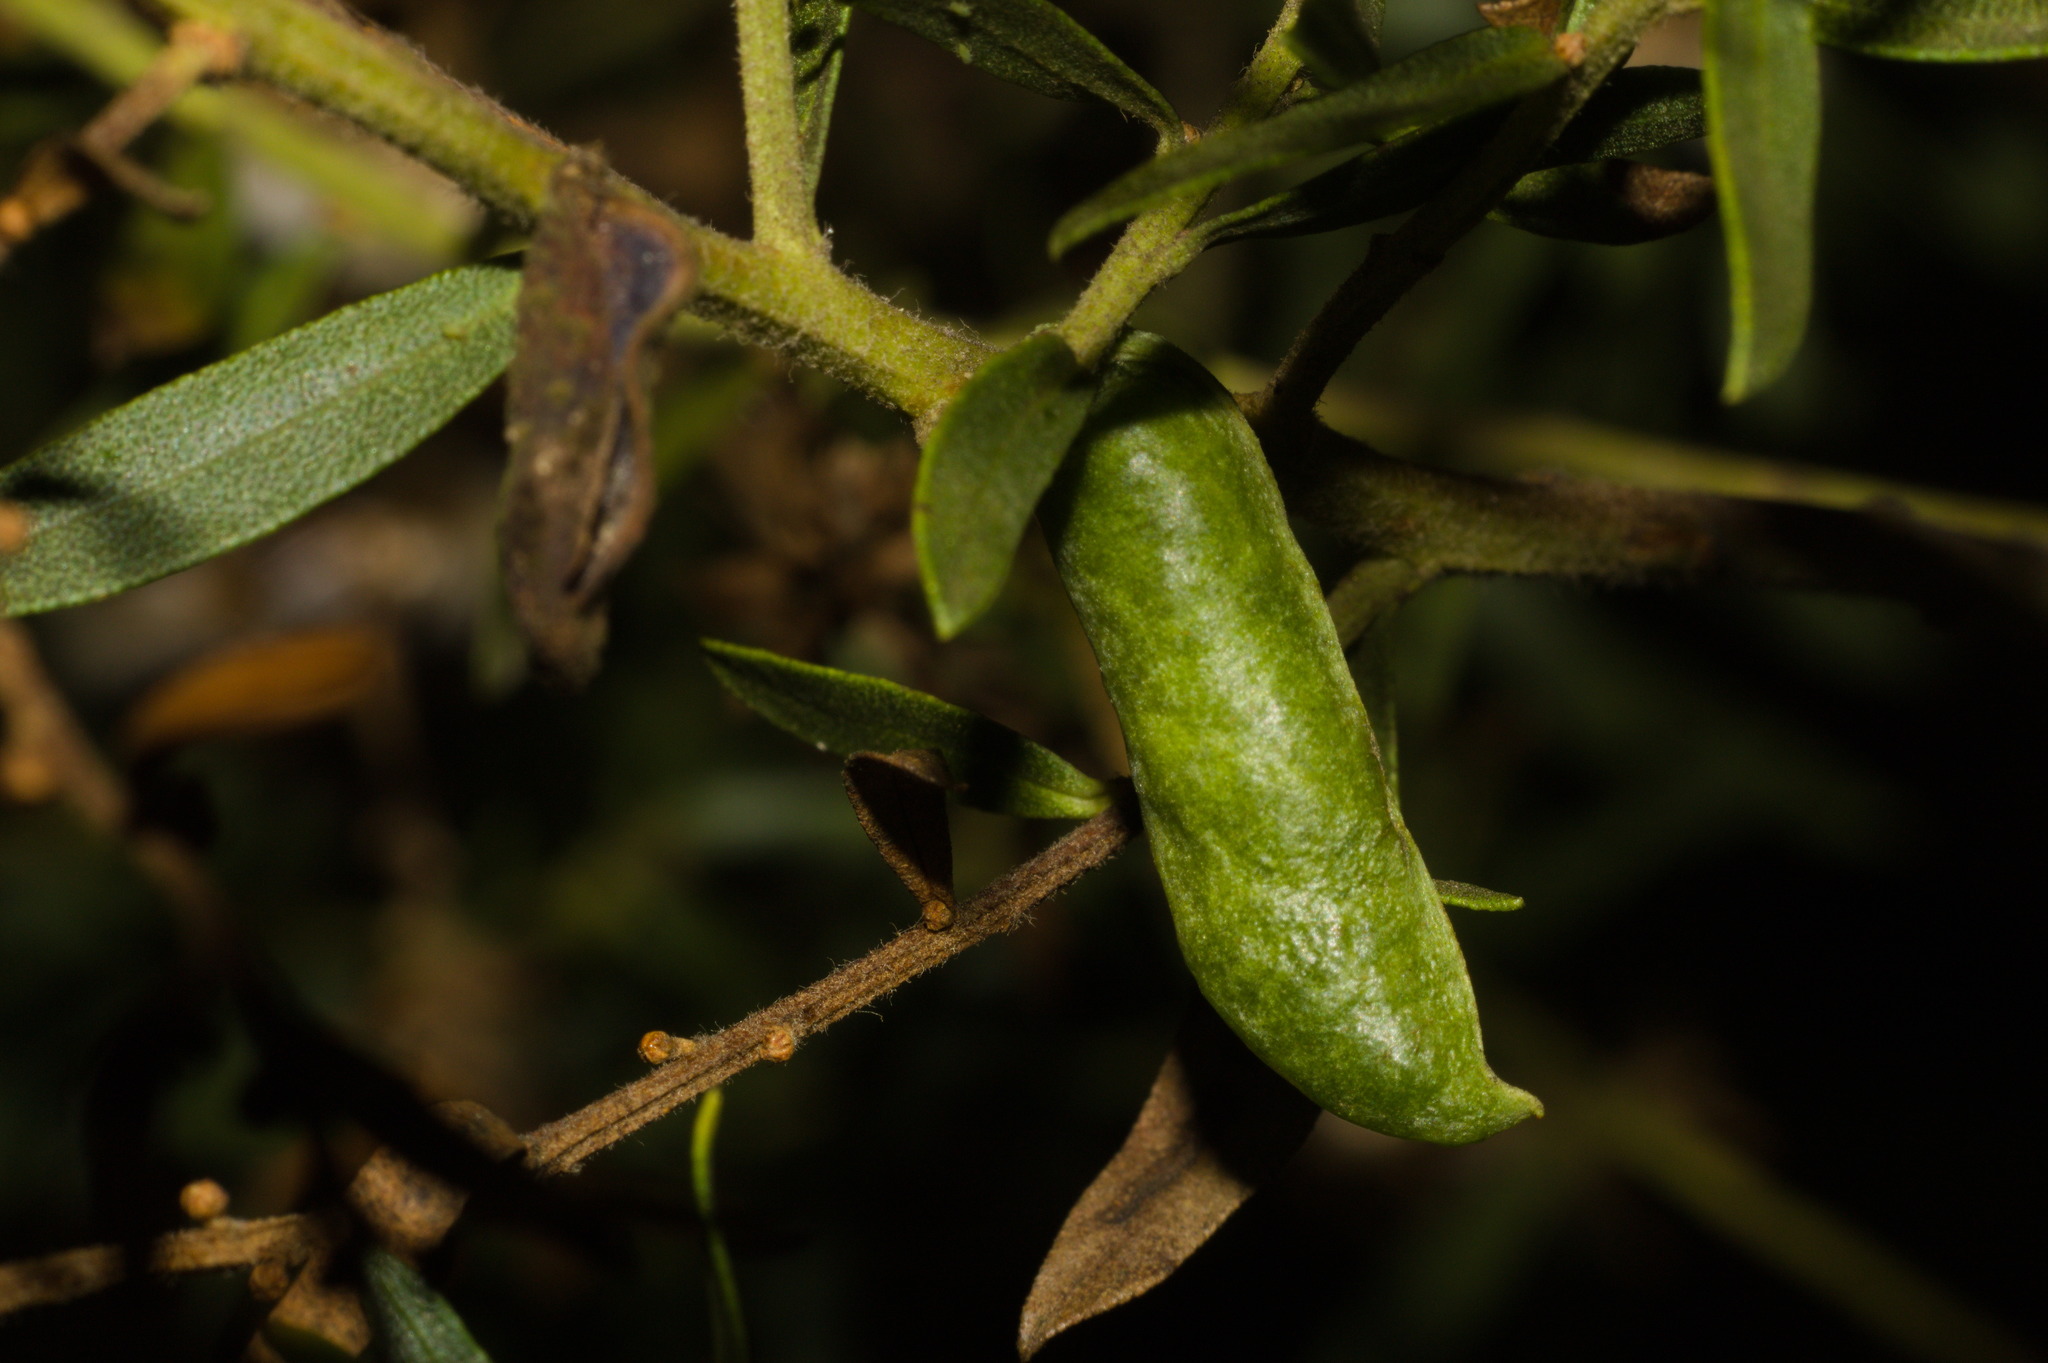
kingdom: Plantae
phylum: Tracheophyta
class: Magnoliopsida
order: Asterales
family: Asteraceae
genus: Baccharis
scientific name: Baccharis dracunculifolia
